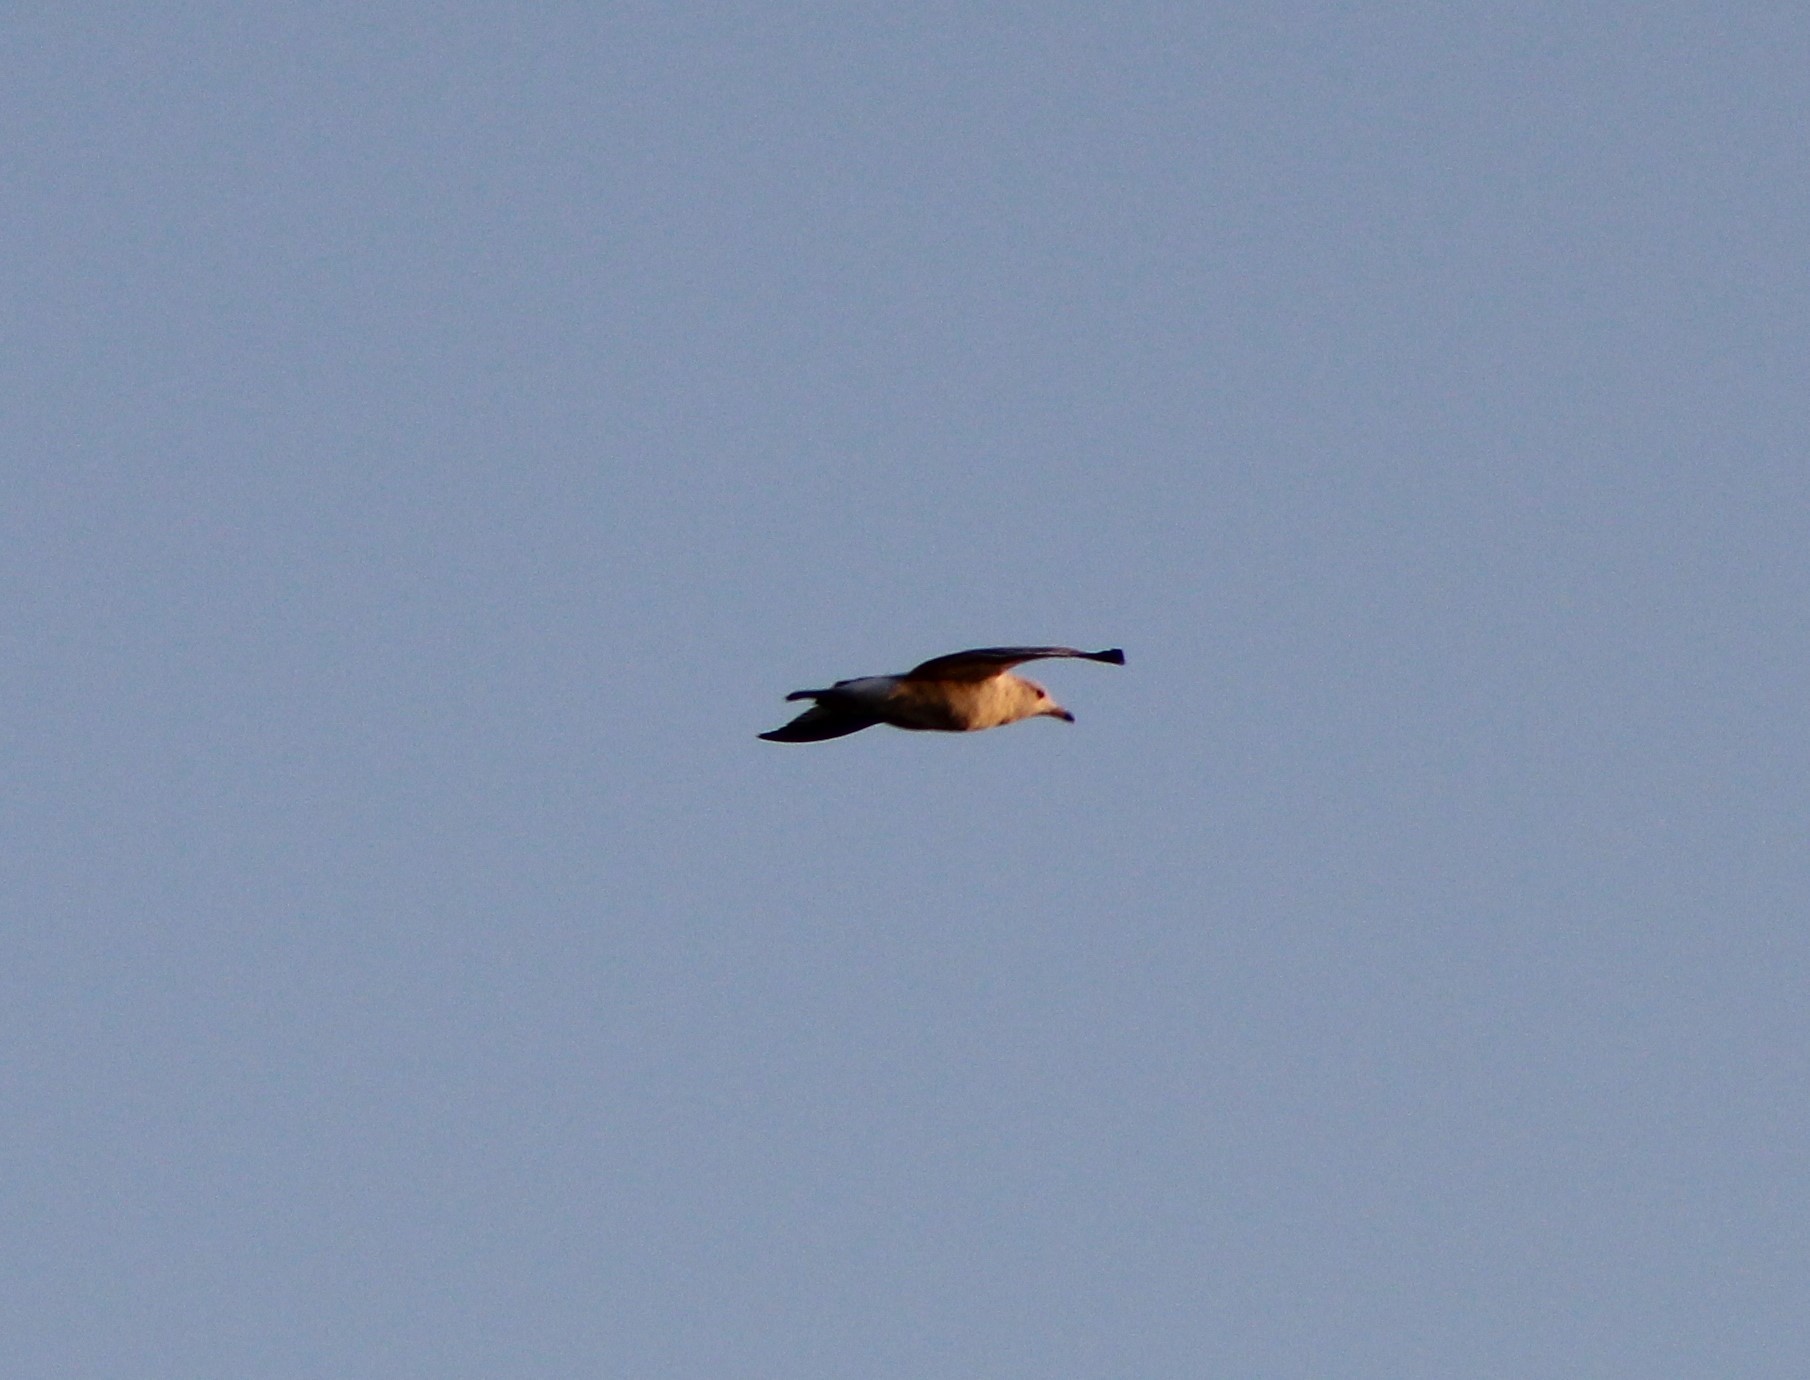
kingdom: Animalia
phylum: Chordata
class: Aves
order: Charadriiformes
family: Laridae
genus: Larus
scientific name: Larus delawarensis
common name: Ring-billed gull
